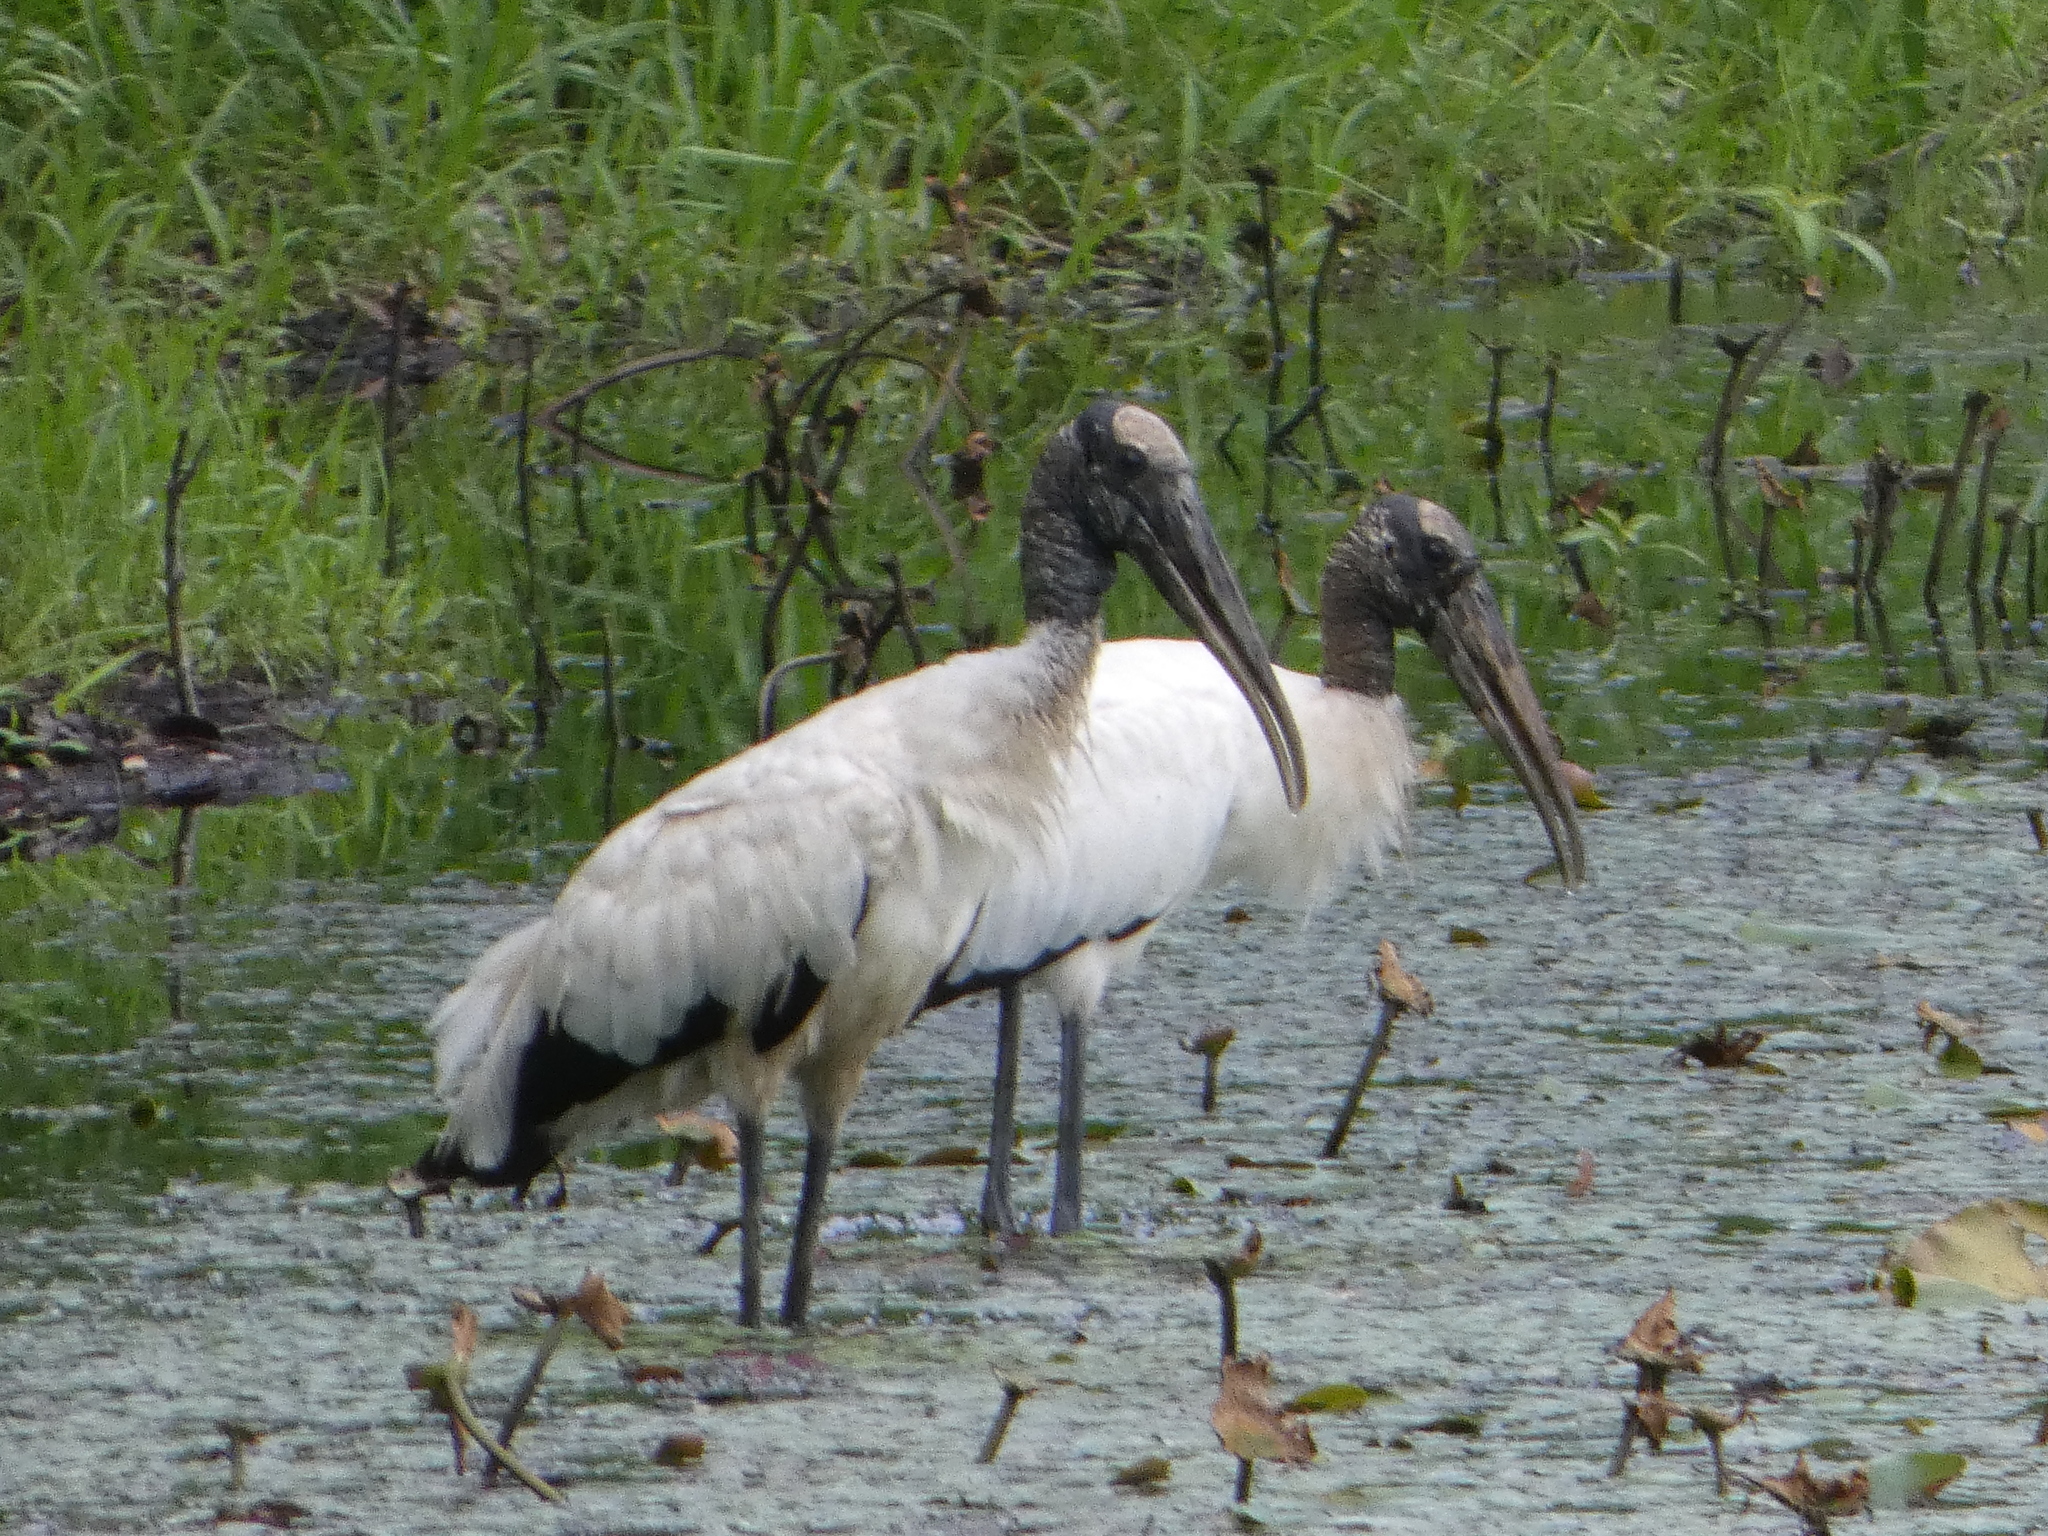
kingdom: Animalia
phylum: Chordata
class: Aves
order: Ciconiiformes
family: Ciconiidae
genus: Mycteria
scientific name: Mycteria americana
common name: Wood stork
